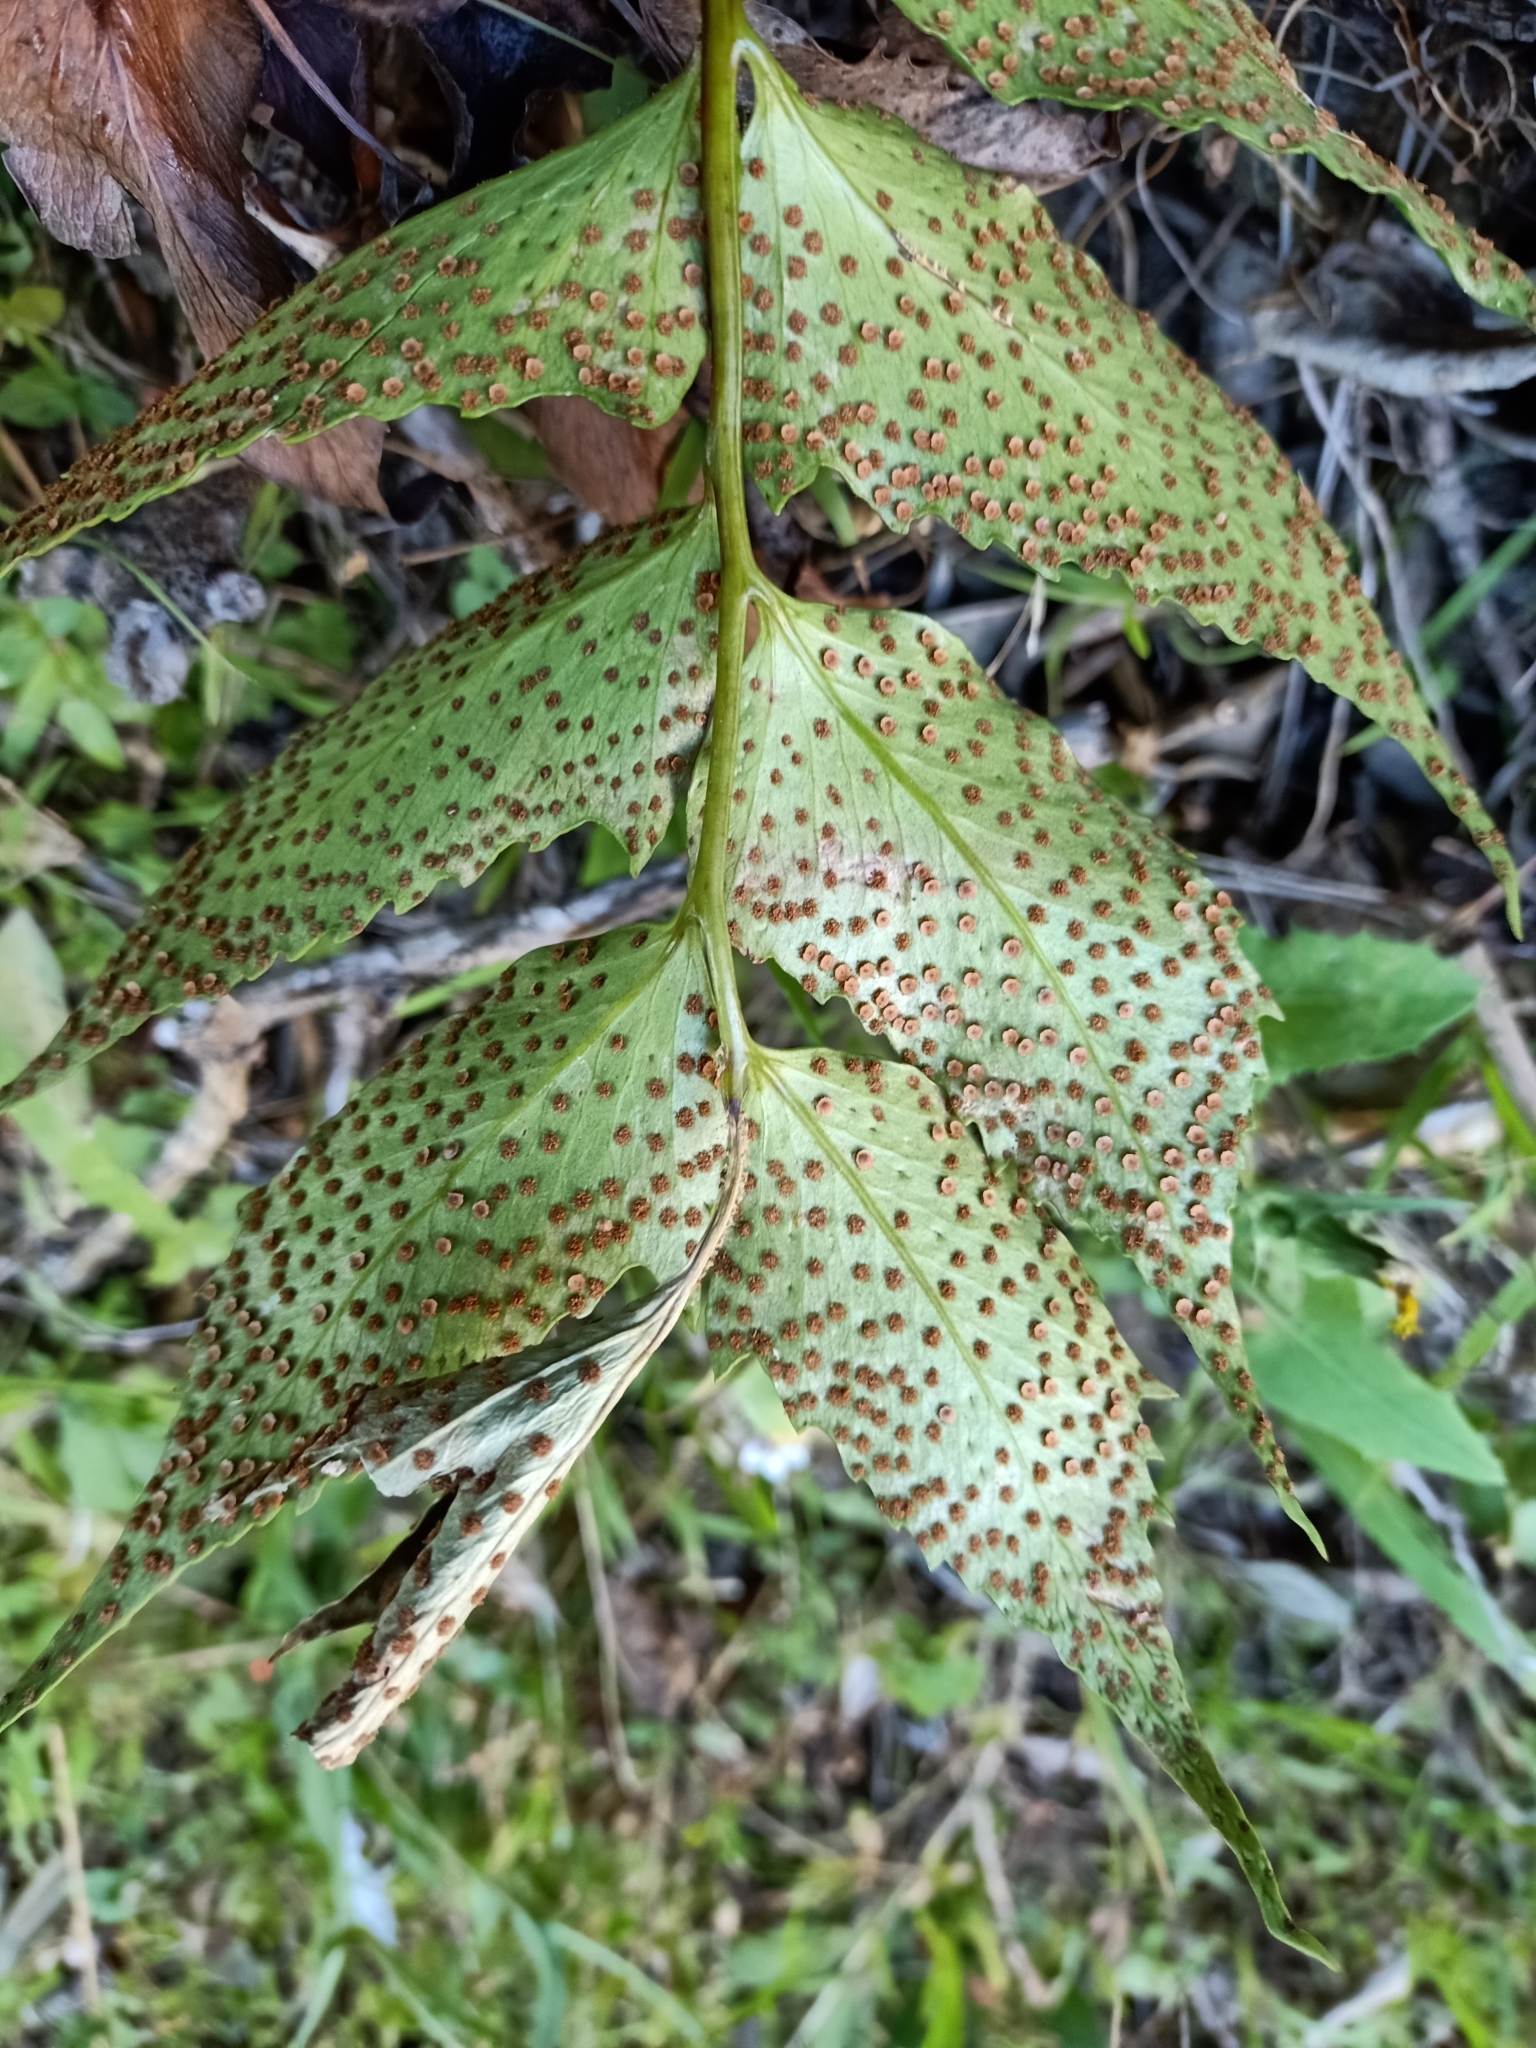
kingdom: Plantae
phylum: Tracheophyta
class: Polypodiopsida
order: Polypodiales
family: Dryopteridaceae
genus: Cyrtomium
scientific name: Cyrtomium falcatum
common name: House holly-fern
